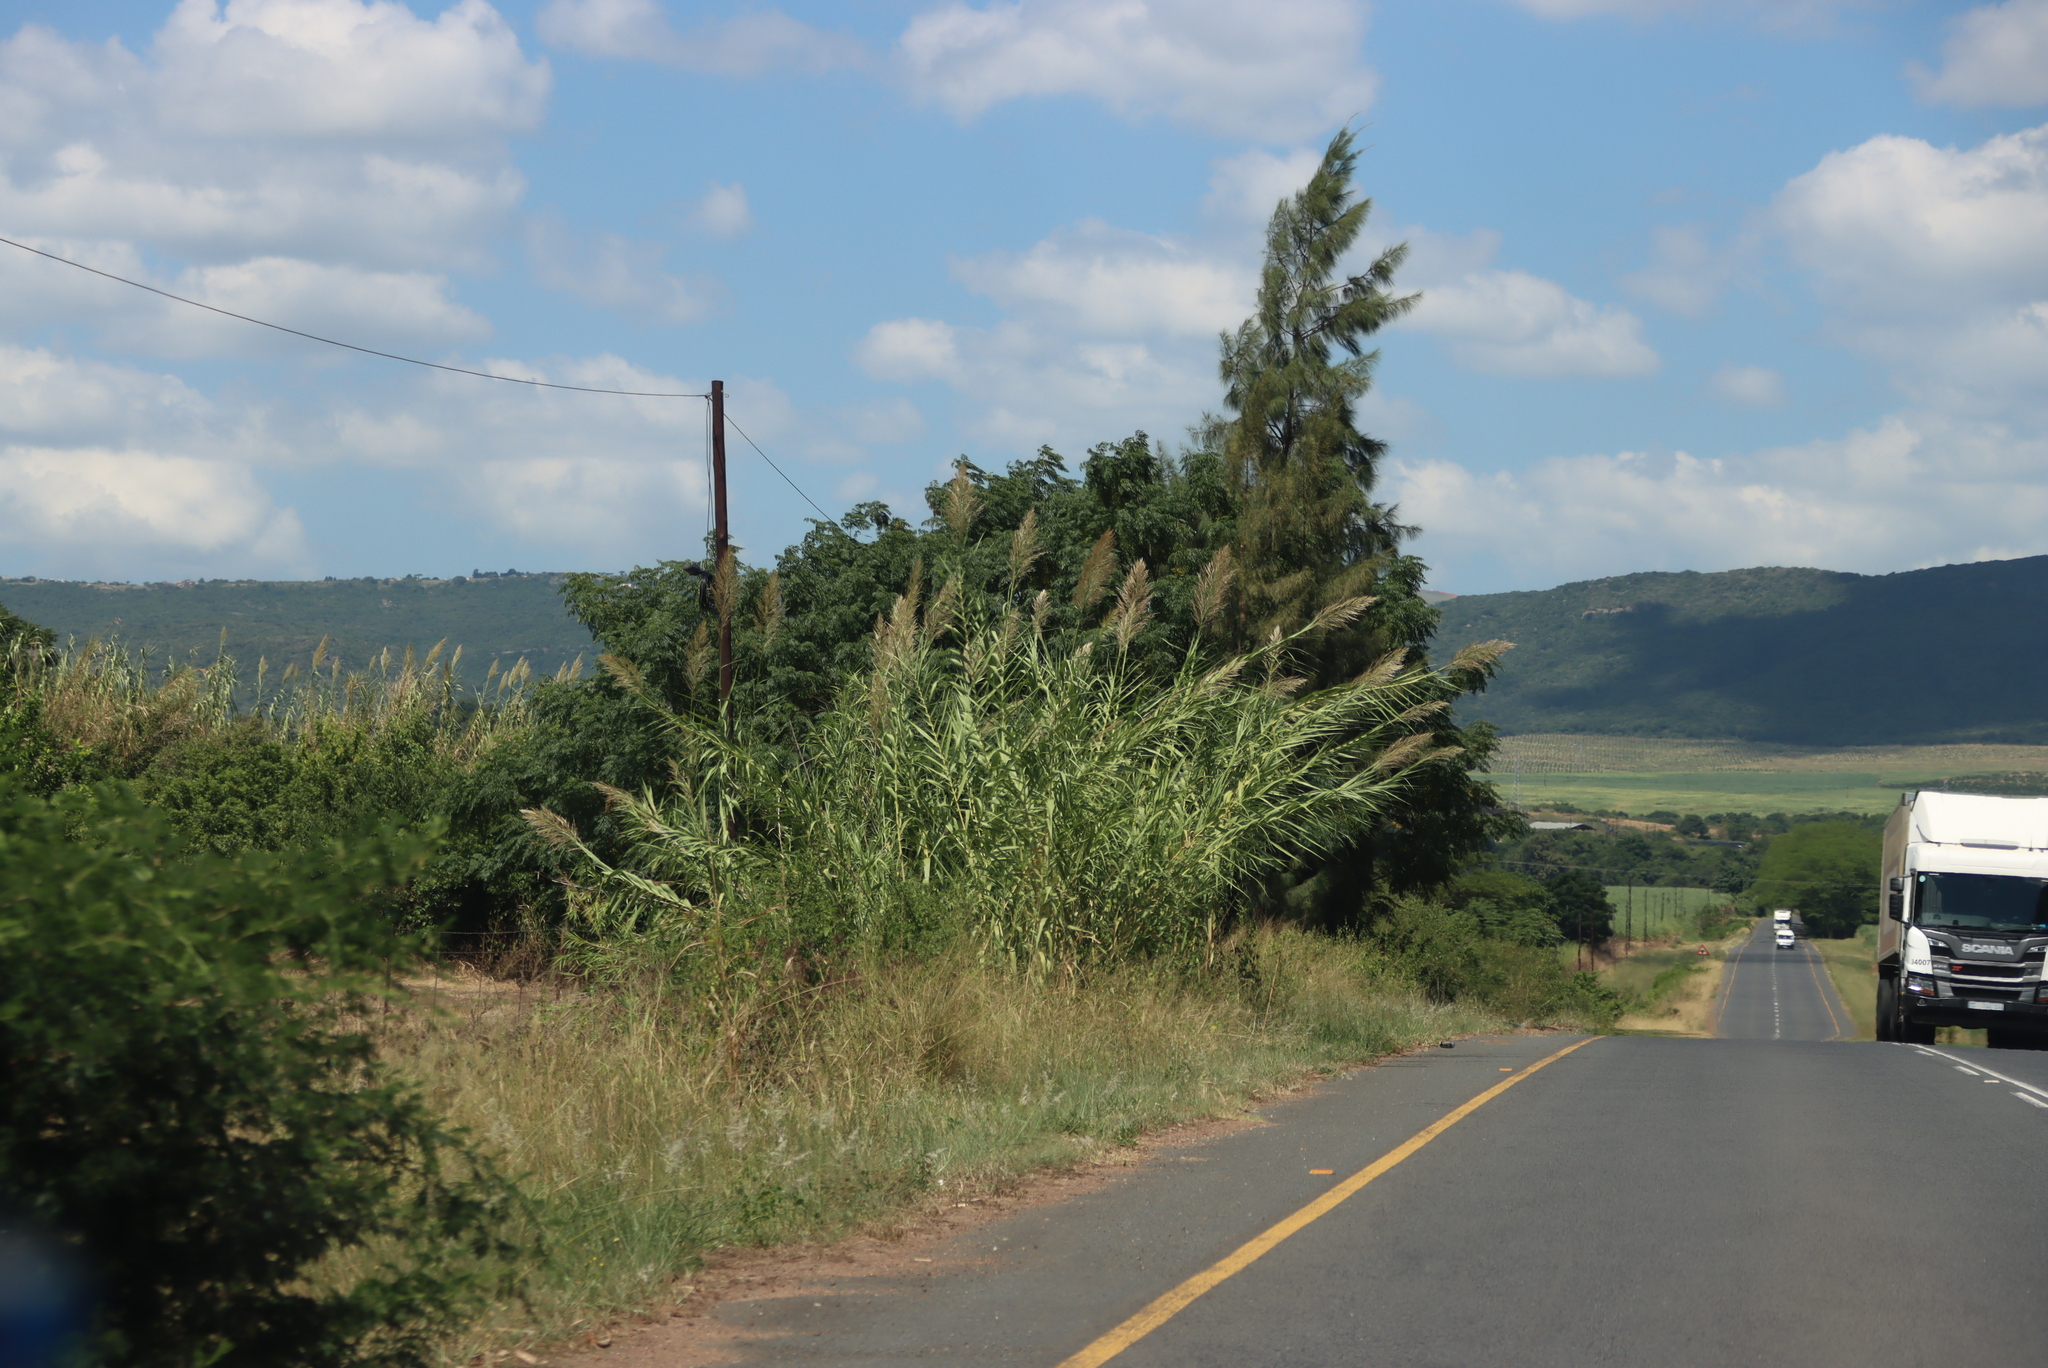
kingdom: Plantae
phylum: Tracheophyta
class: Liliopsida
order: Poales
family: Poaceae
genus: Arundo
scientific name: Arundo donax
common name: Giant reed
